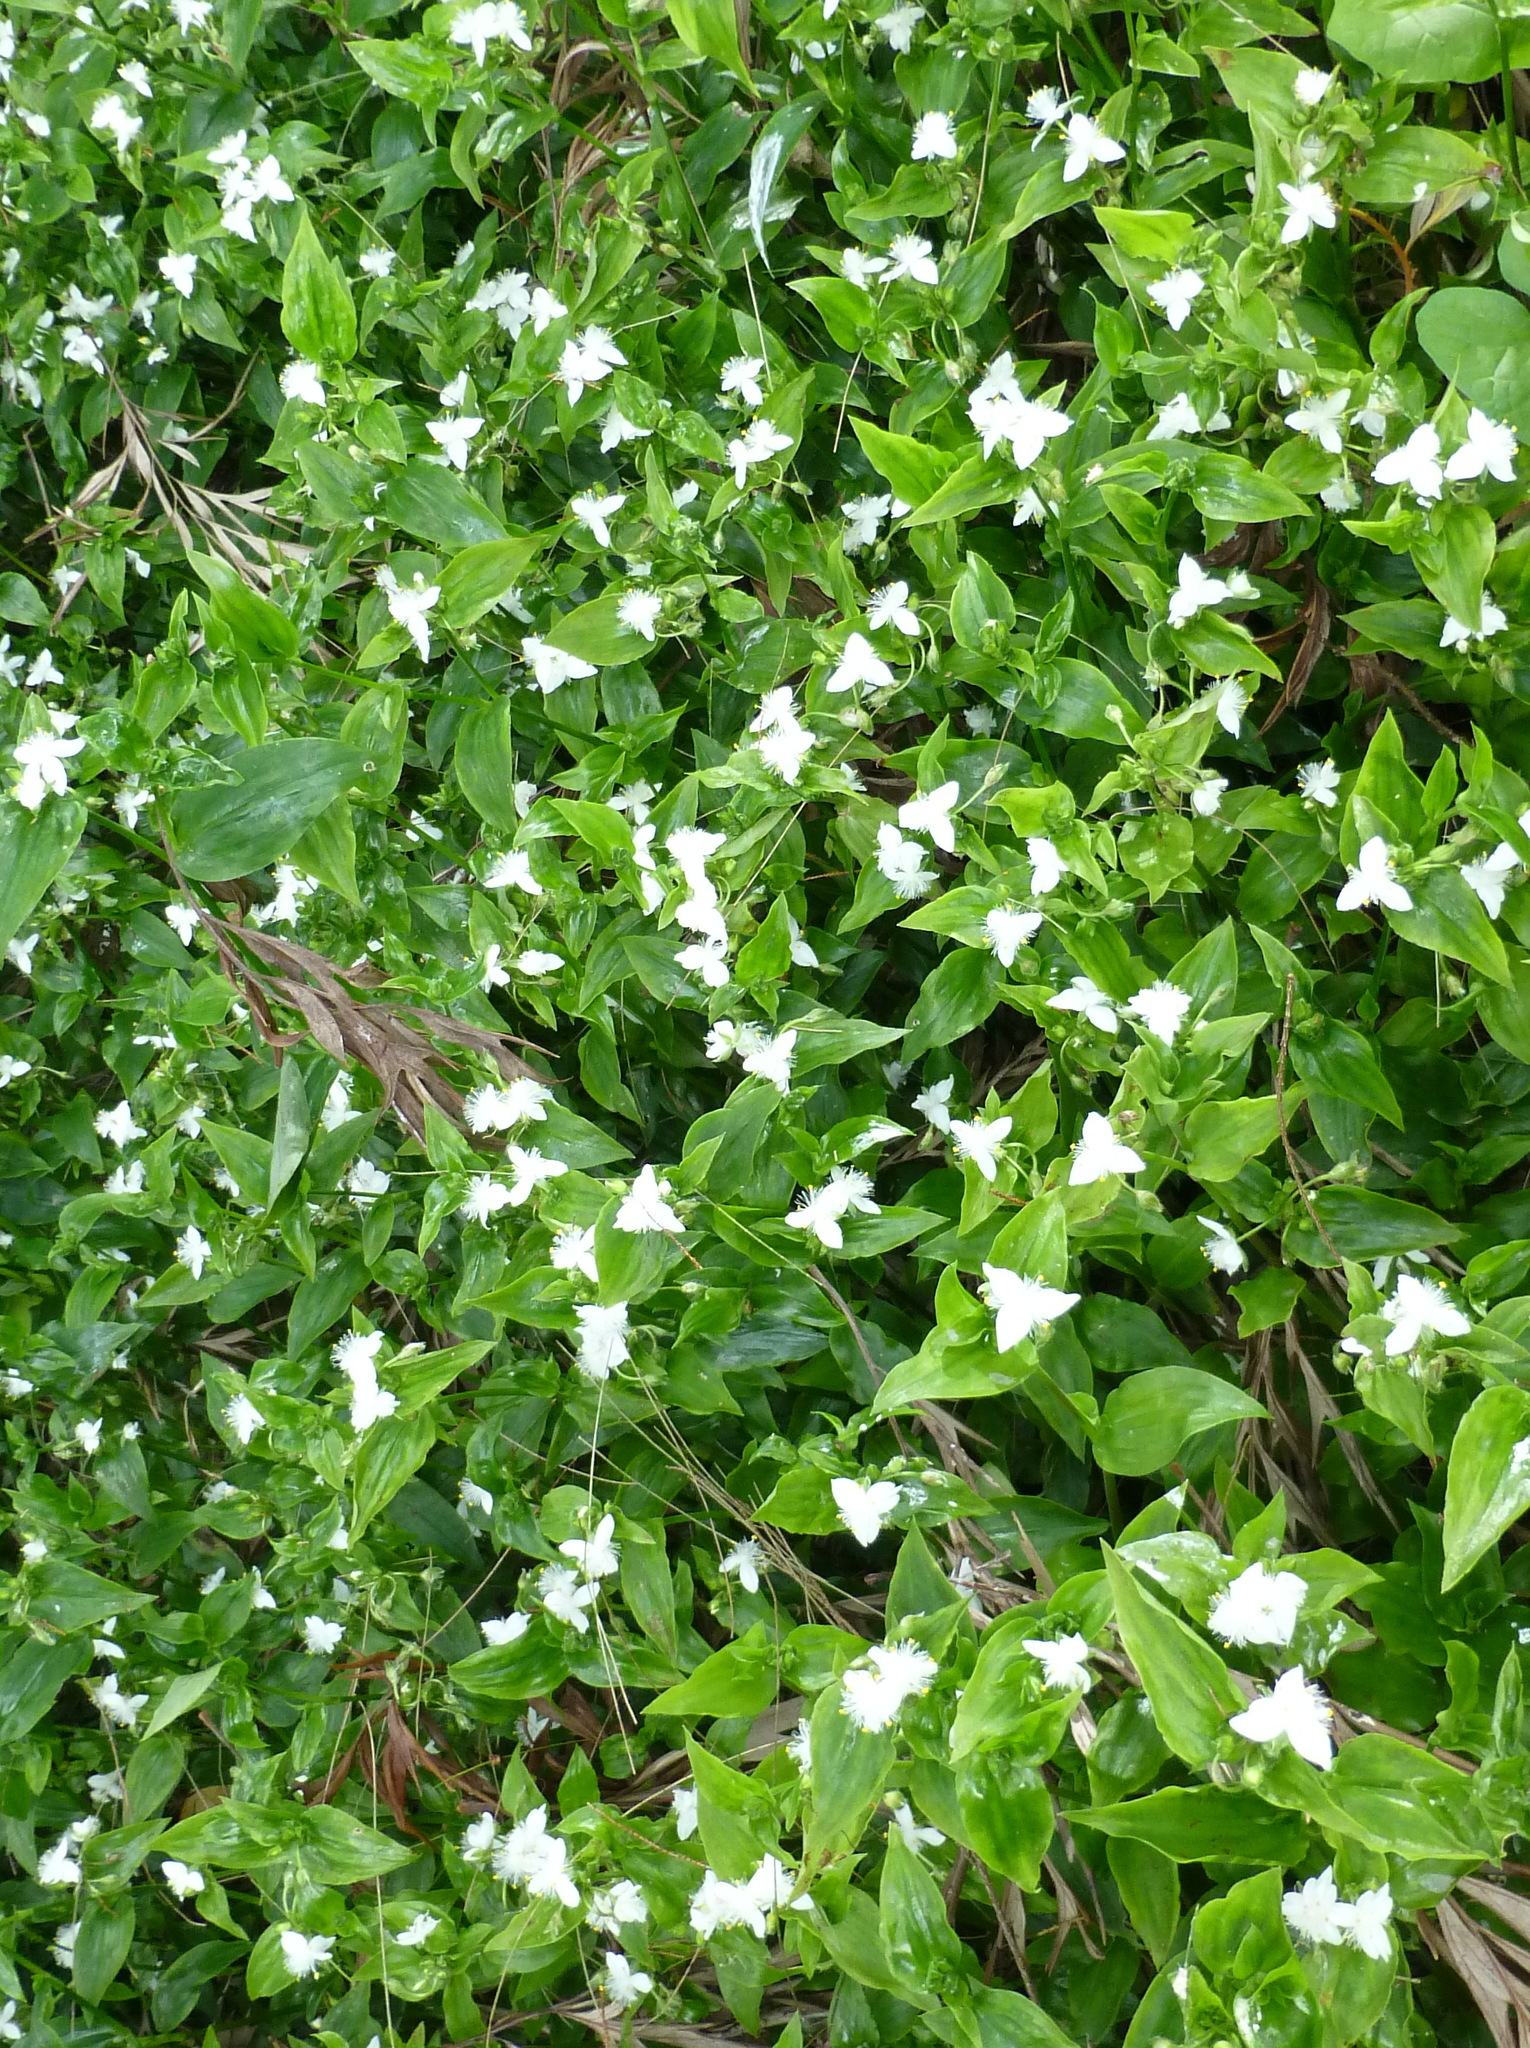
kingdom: Plantae
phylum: Tracheophyta
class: Liliopsida
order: Commelinales
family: Commelinaceae
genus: Tradescantia
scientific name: Tradescantia fluminensis
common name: Wandering-jew
